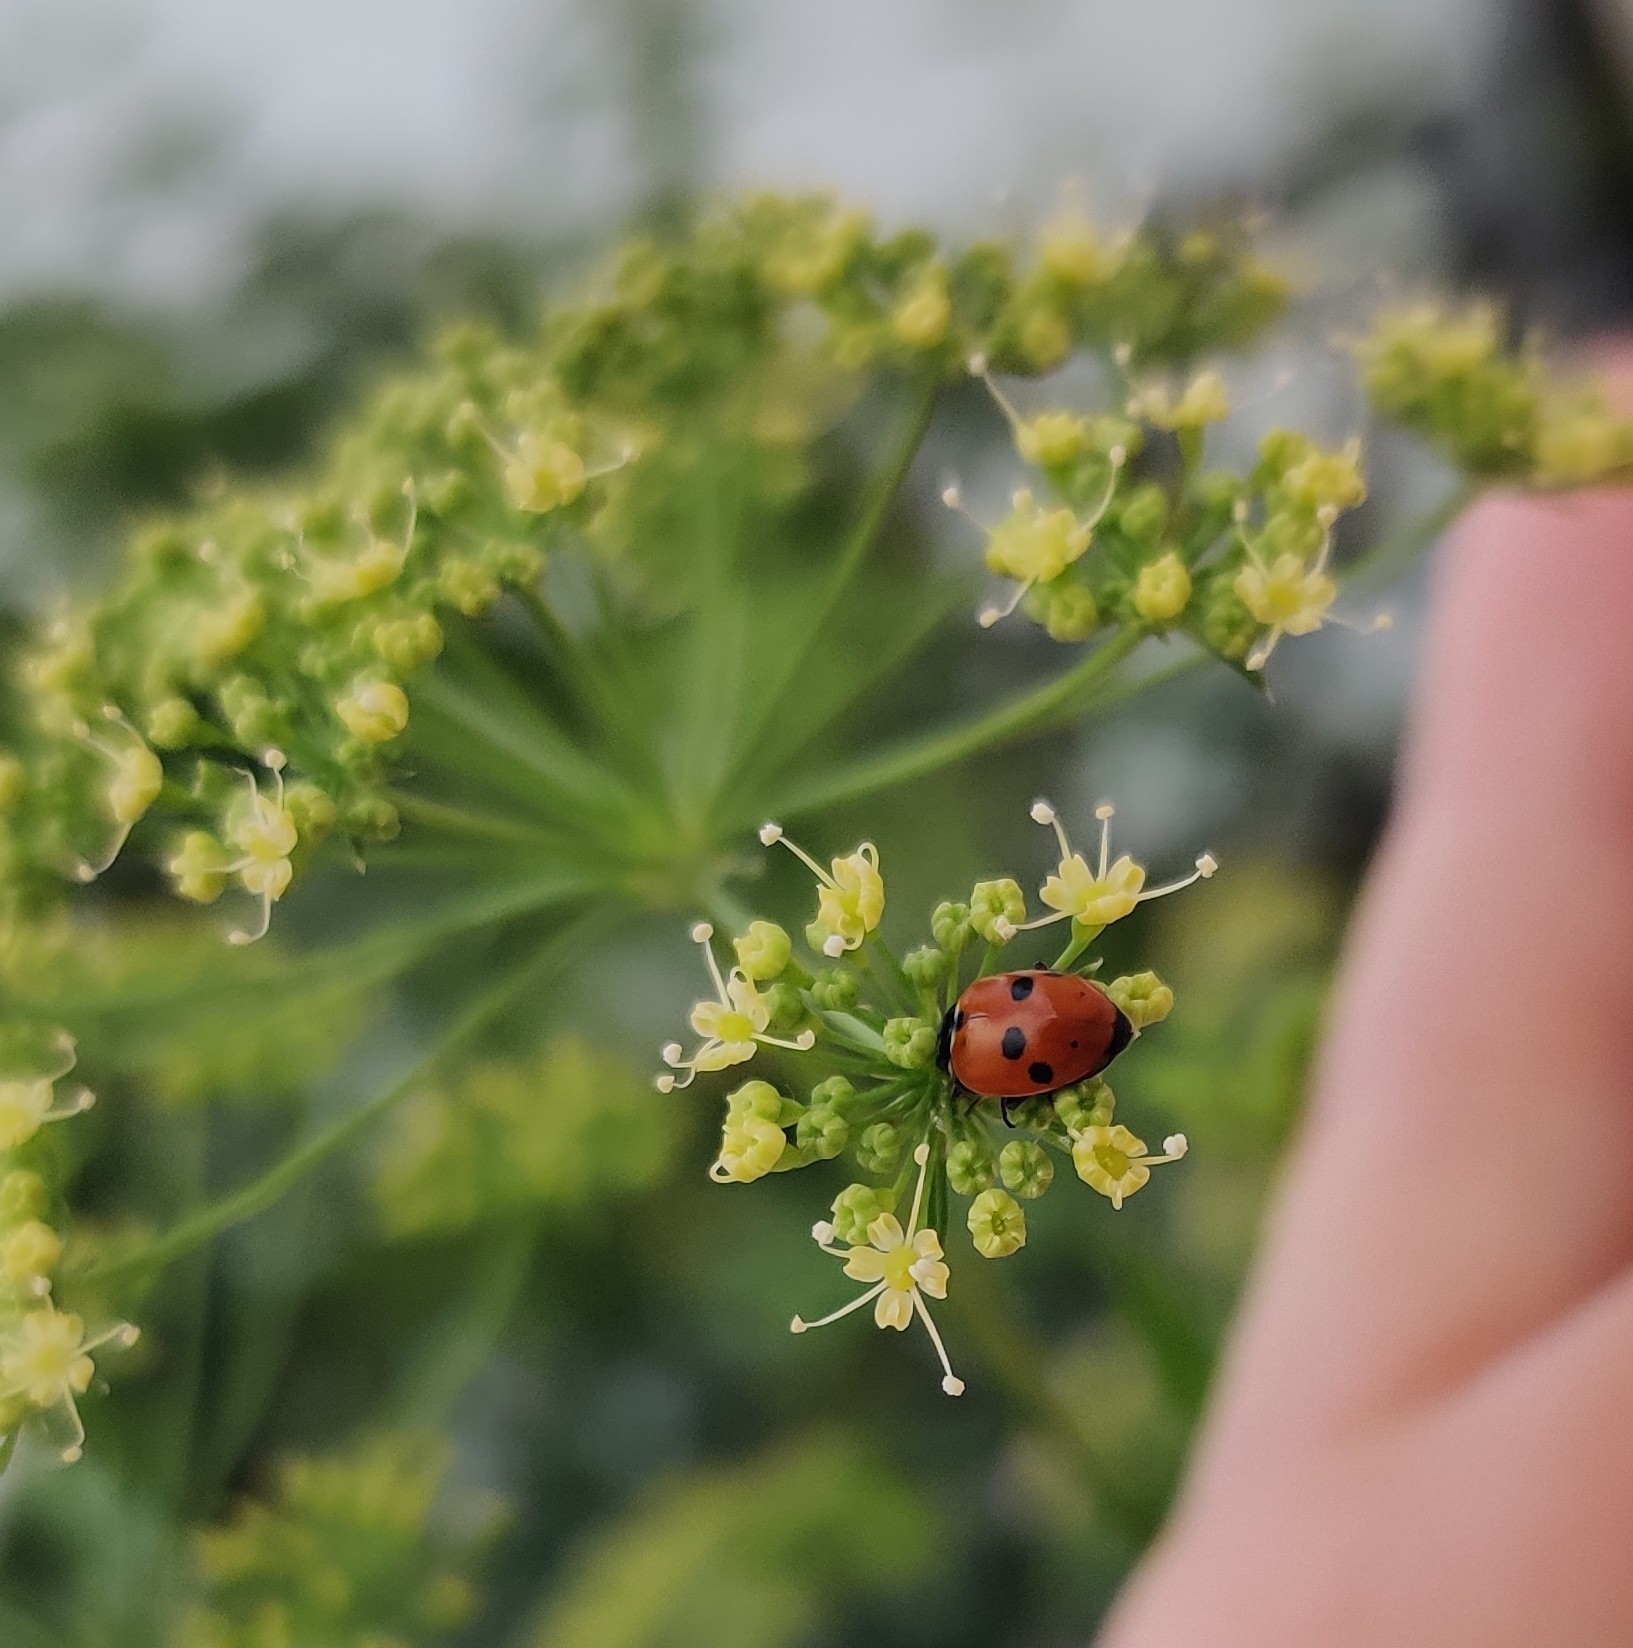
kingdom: Animalia
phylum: Arthropoda
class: Insecta
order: Coleoptera
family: Coccinellidae
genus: Hippodamia
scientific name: Hippodamia variegata
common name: Ladybird beetle
